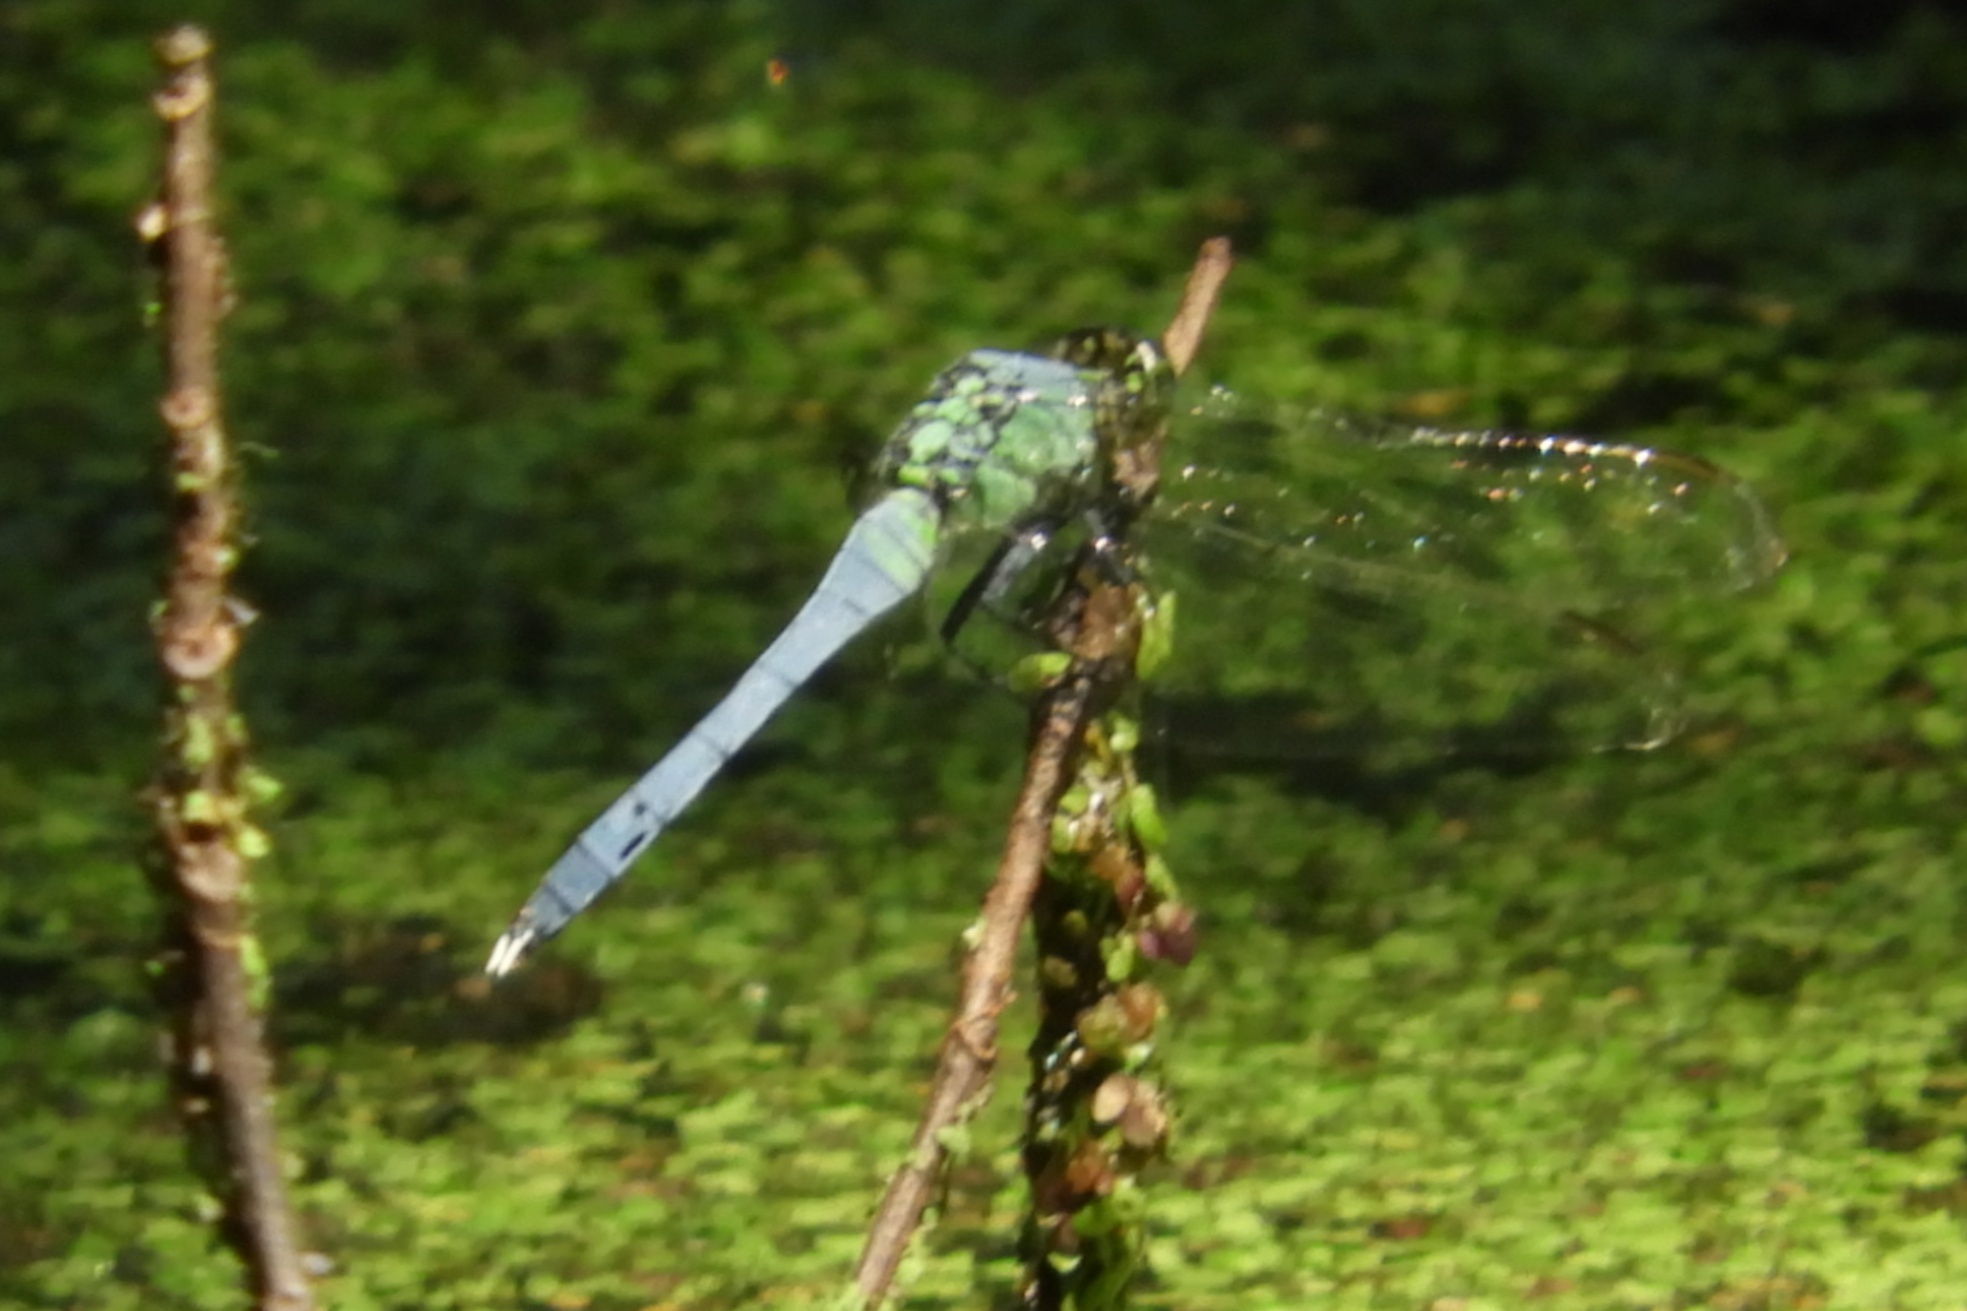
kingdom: Animalia
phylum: Arthropoda
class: Insecta
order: Odonata
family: Libellulidae
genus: Erythemis
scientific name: Erythemis simplicicollis
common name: Eastern pondhawk
